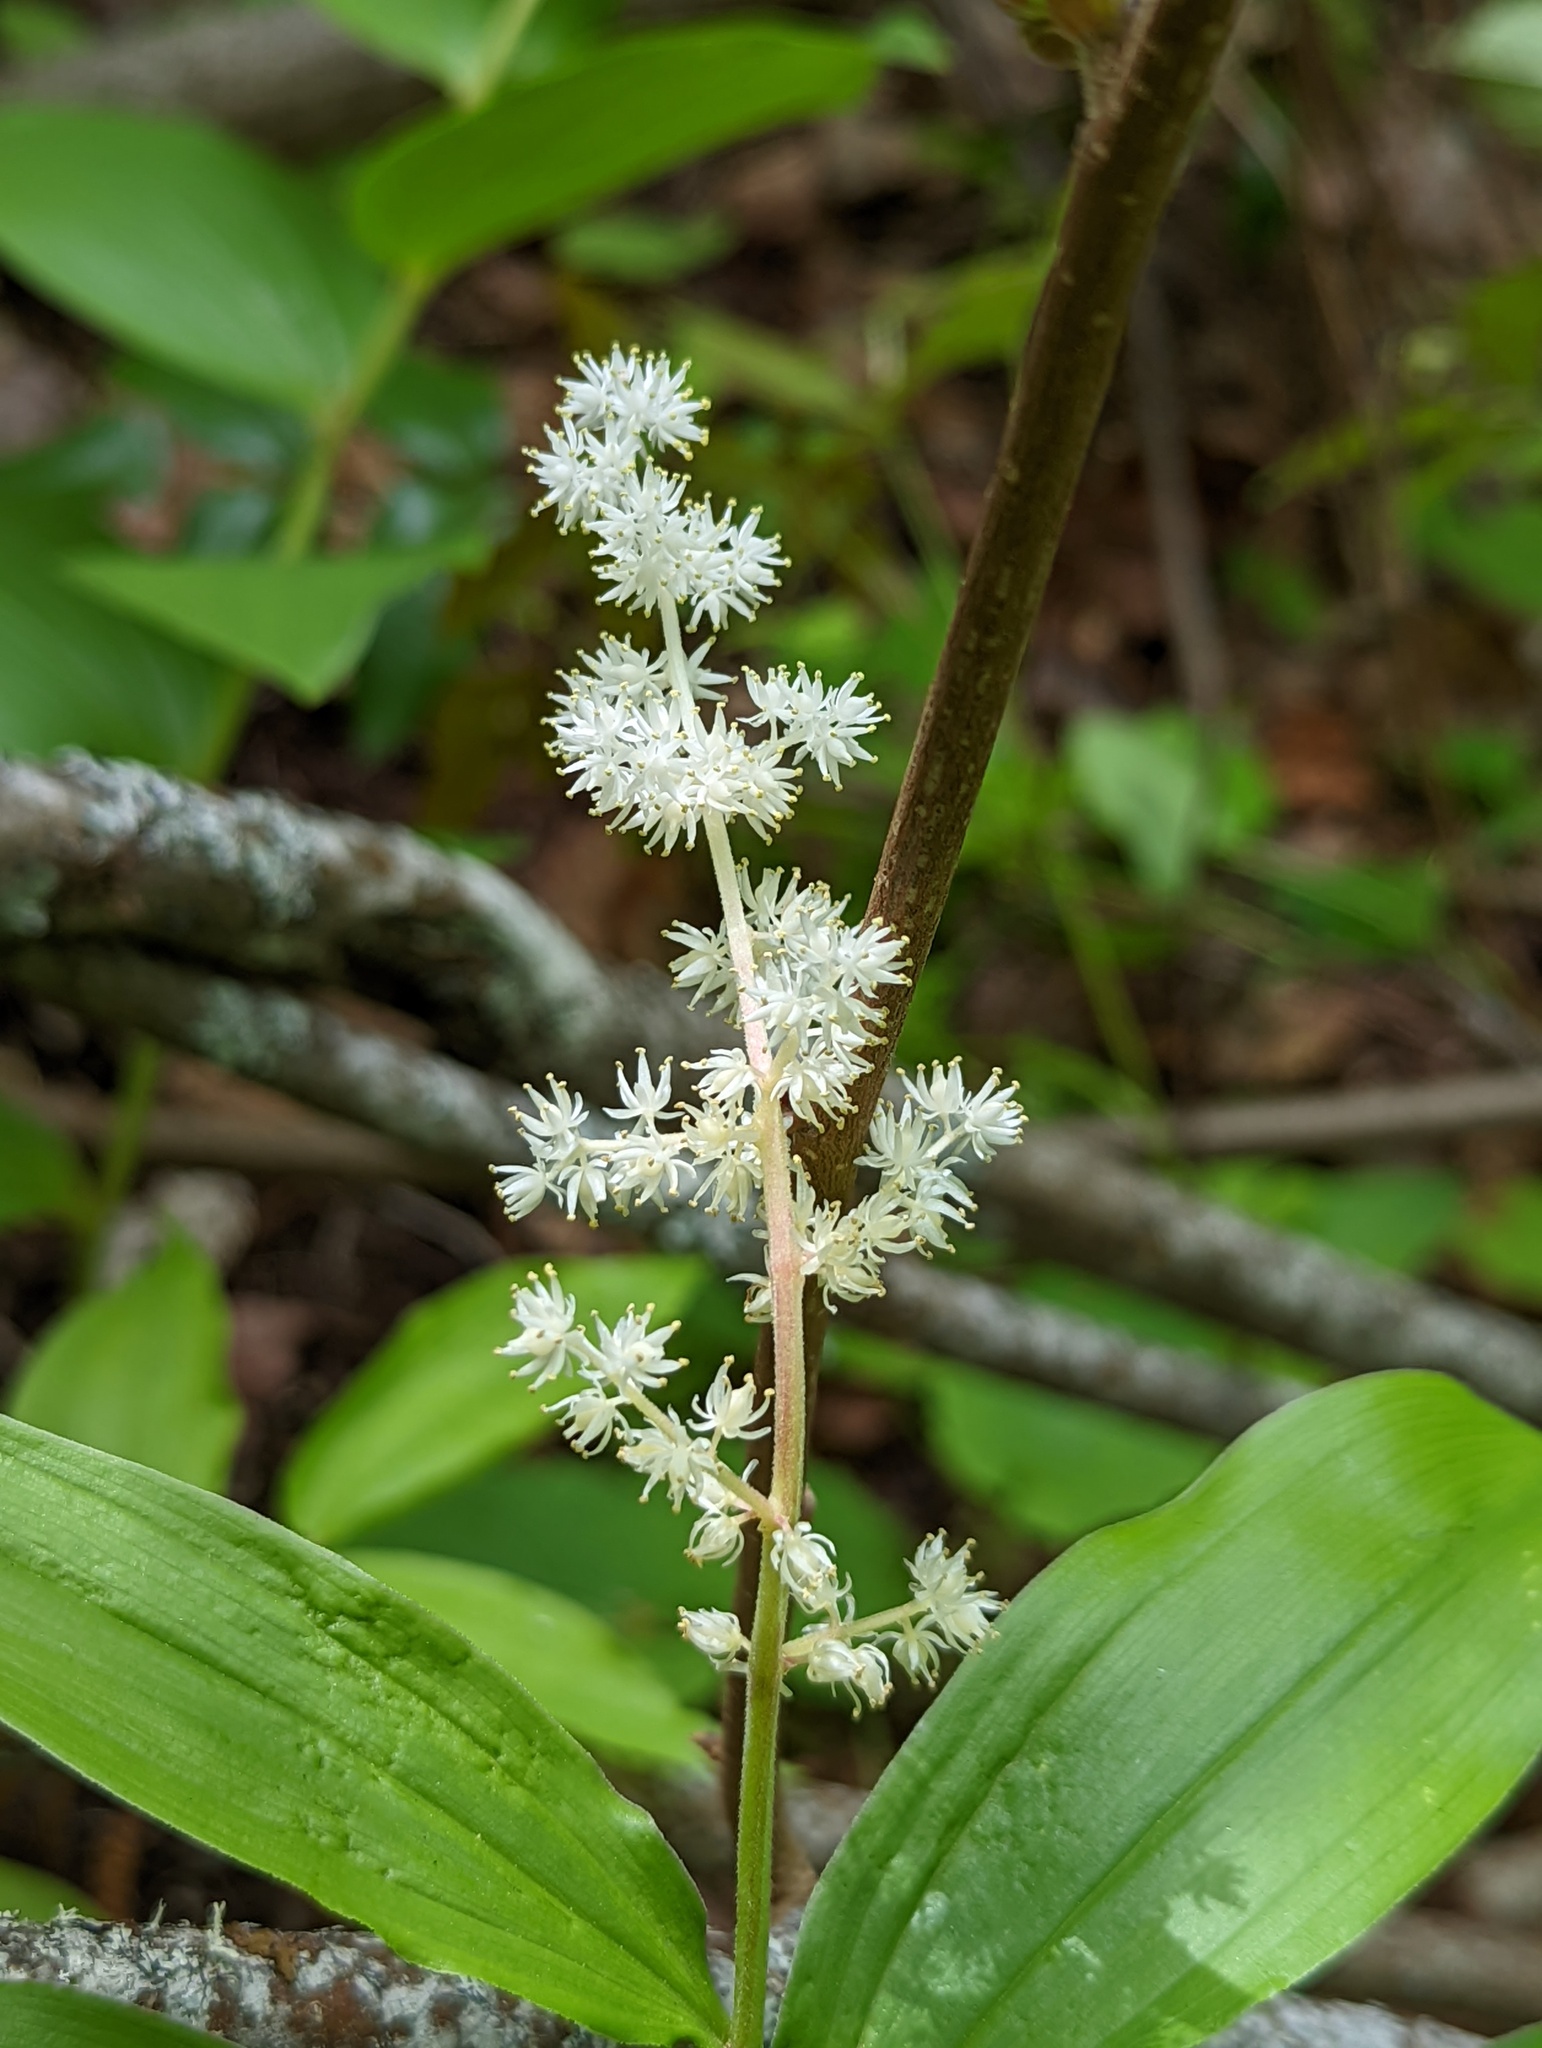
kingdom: Plantae
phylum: Tracheophyta
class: Liliopsida
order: Asparagales
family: Asparagaceae
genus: Maianthemum
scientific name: Maianthemum racemosum
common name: False spikenard
